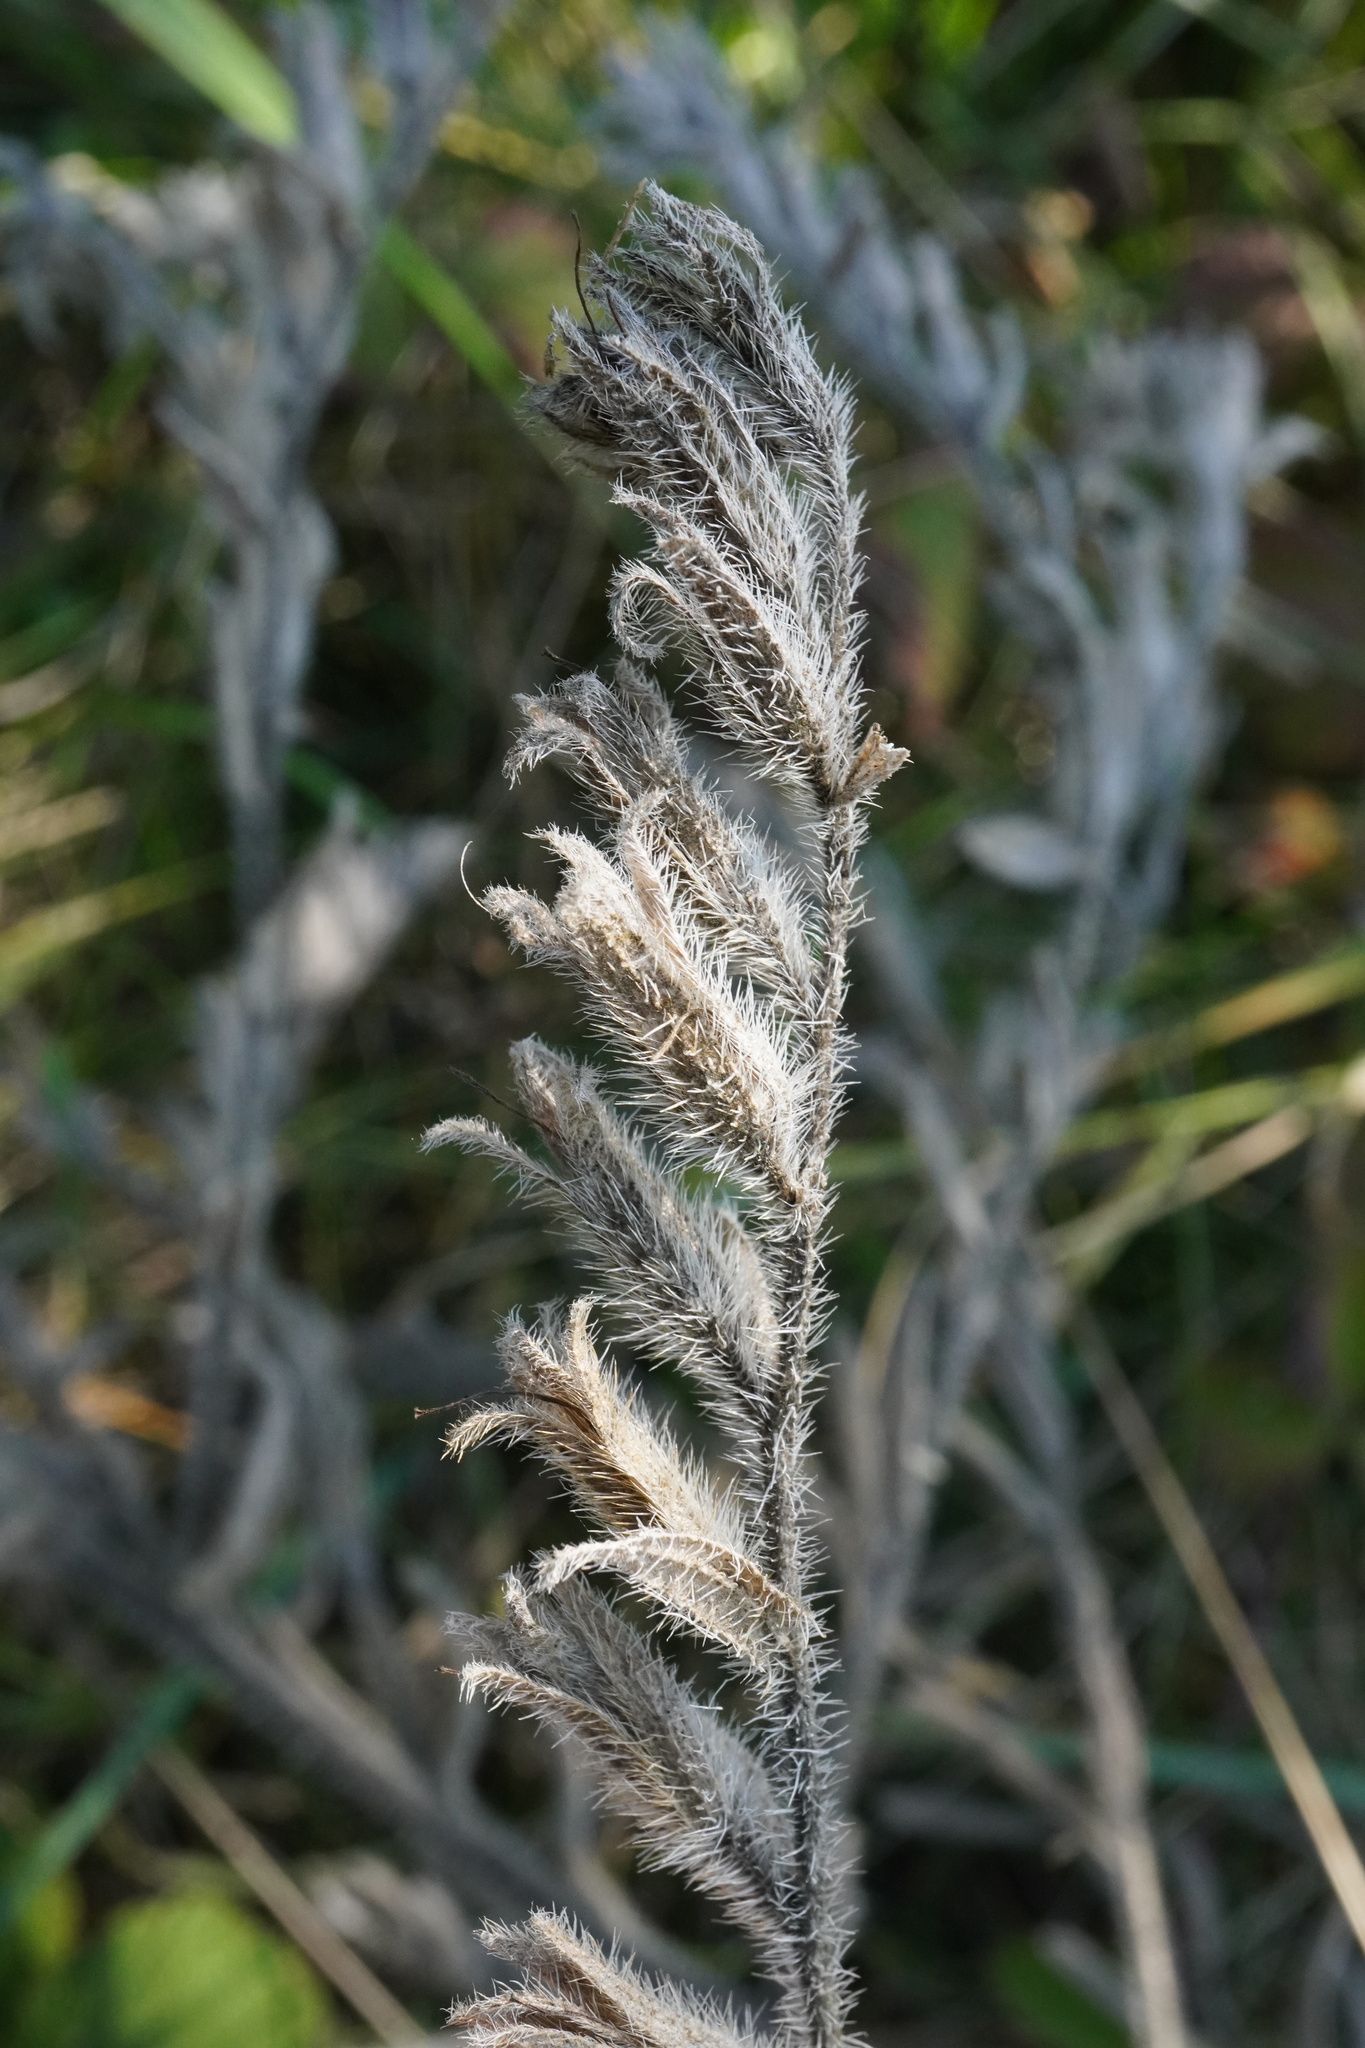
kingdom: Plantae
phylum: Tracheophyta
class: Magnoliopsida
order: Boraginales
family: Boraginaceae
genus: Onosma
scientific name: Onosma arenaria
